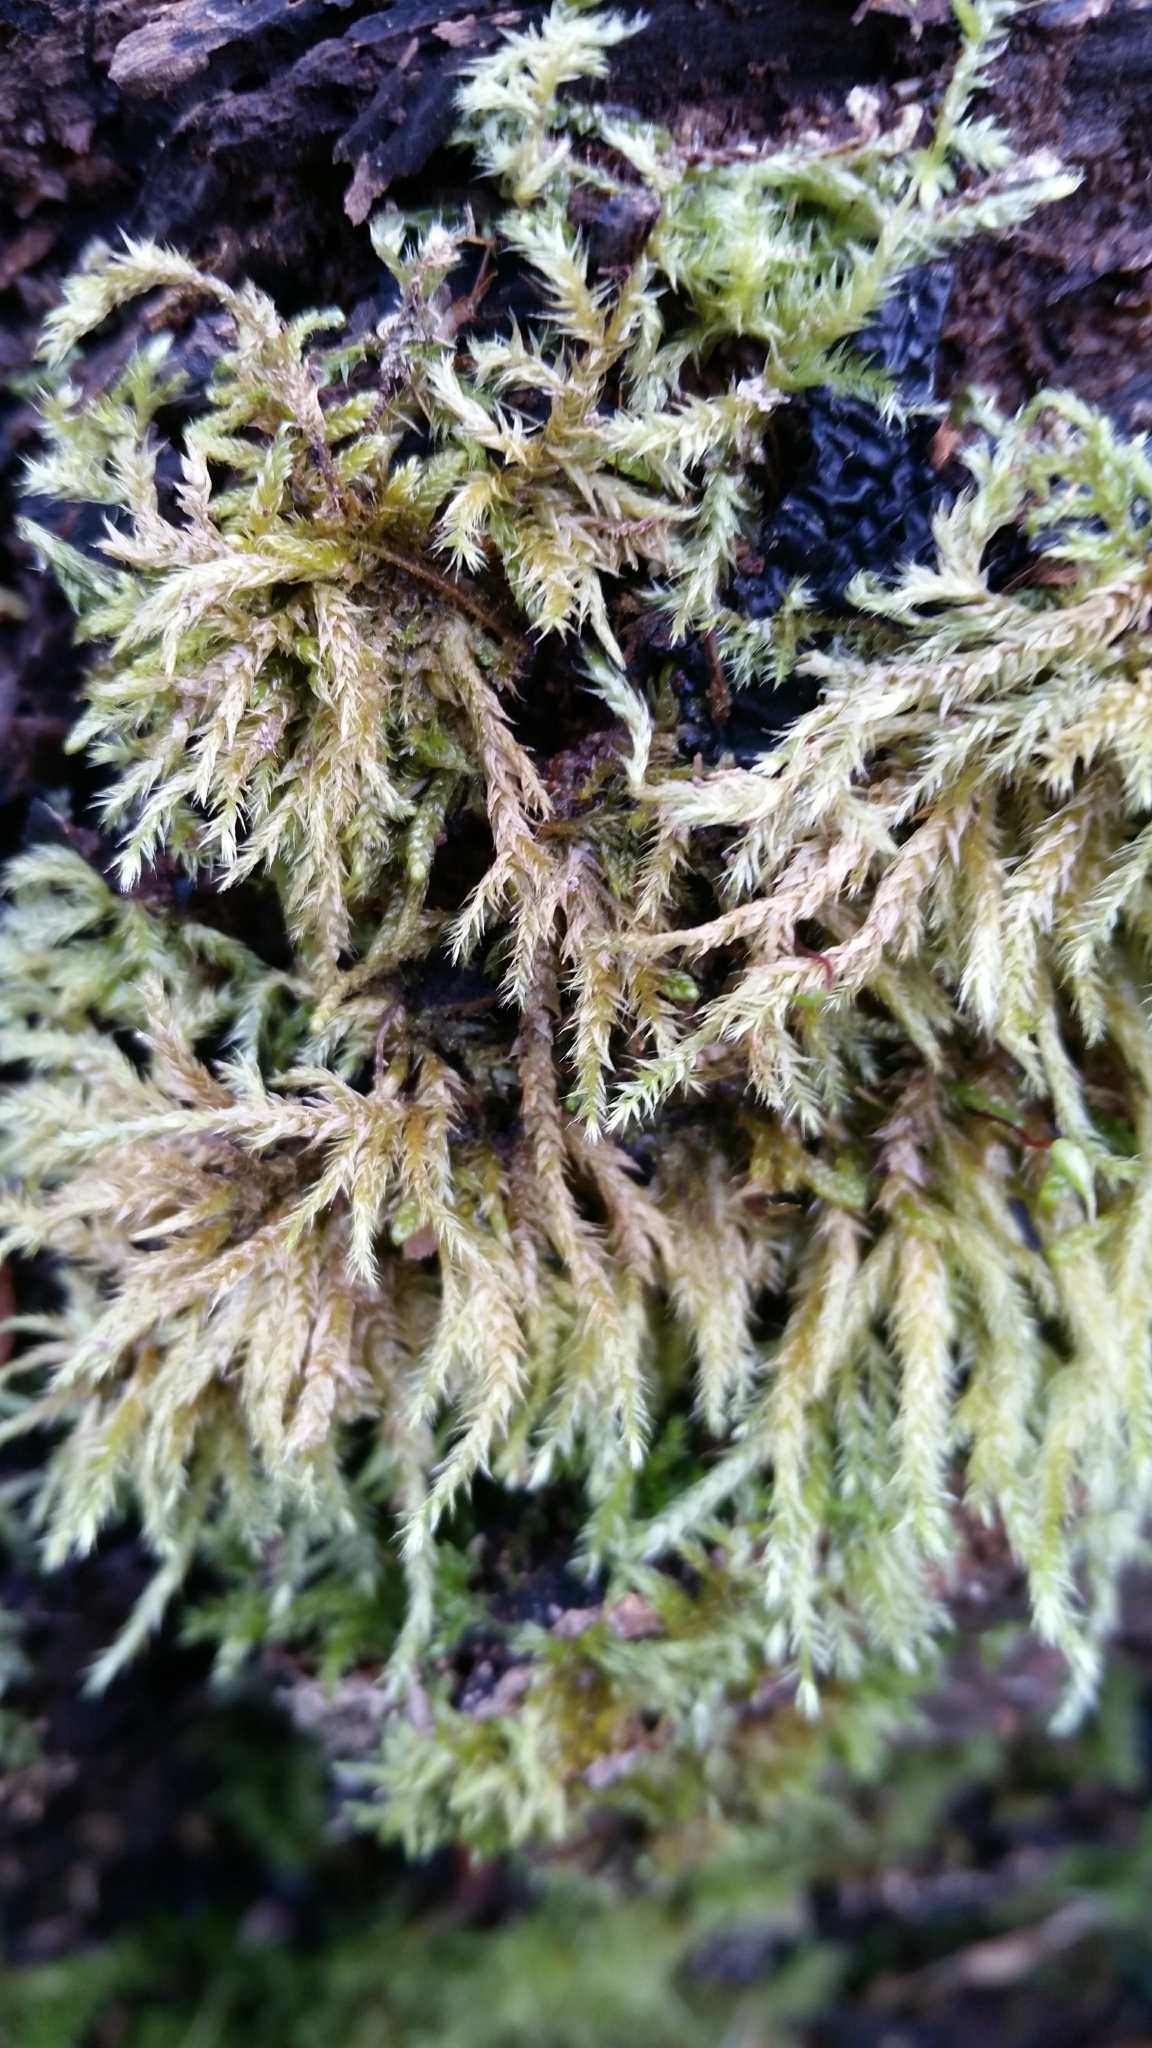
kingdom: Plantae
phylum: Bryophyta
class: Bryopsida
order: Hypnales
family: Brachytheciaceae
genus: Brachythecium
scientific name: Brachythecium rutabulum
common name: Rough-stalked feather-moss
